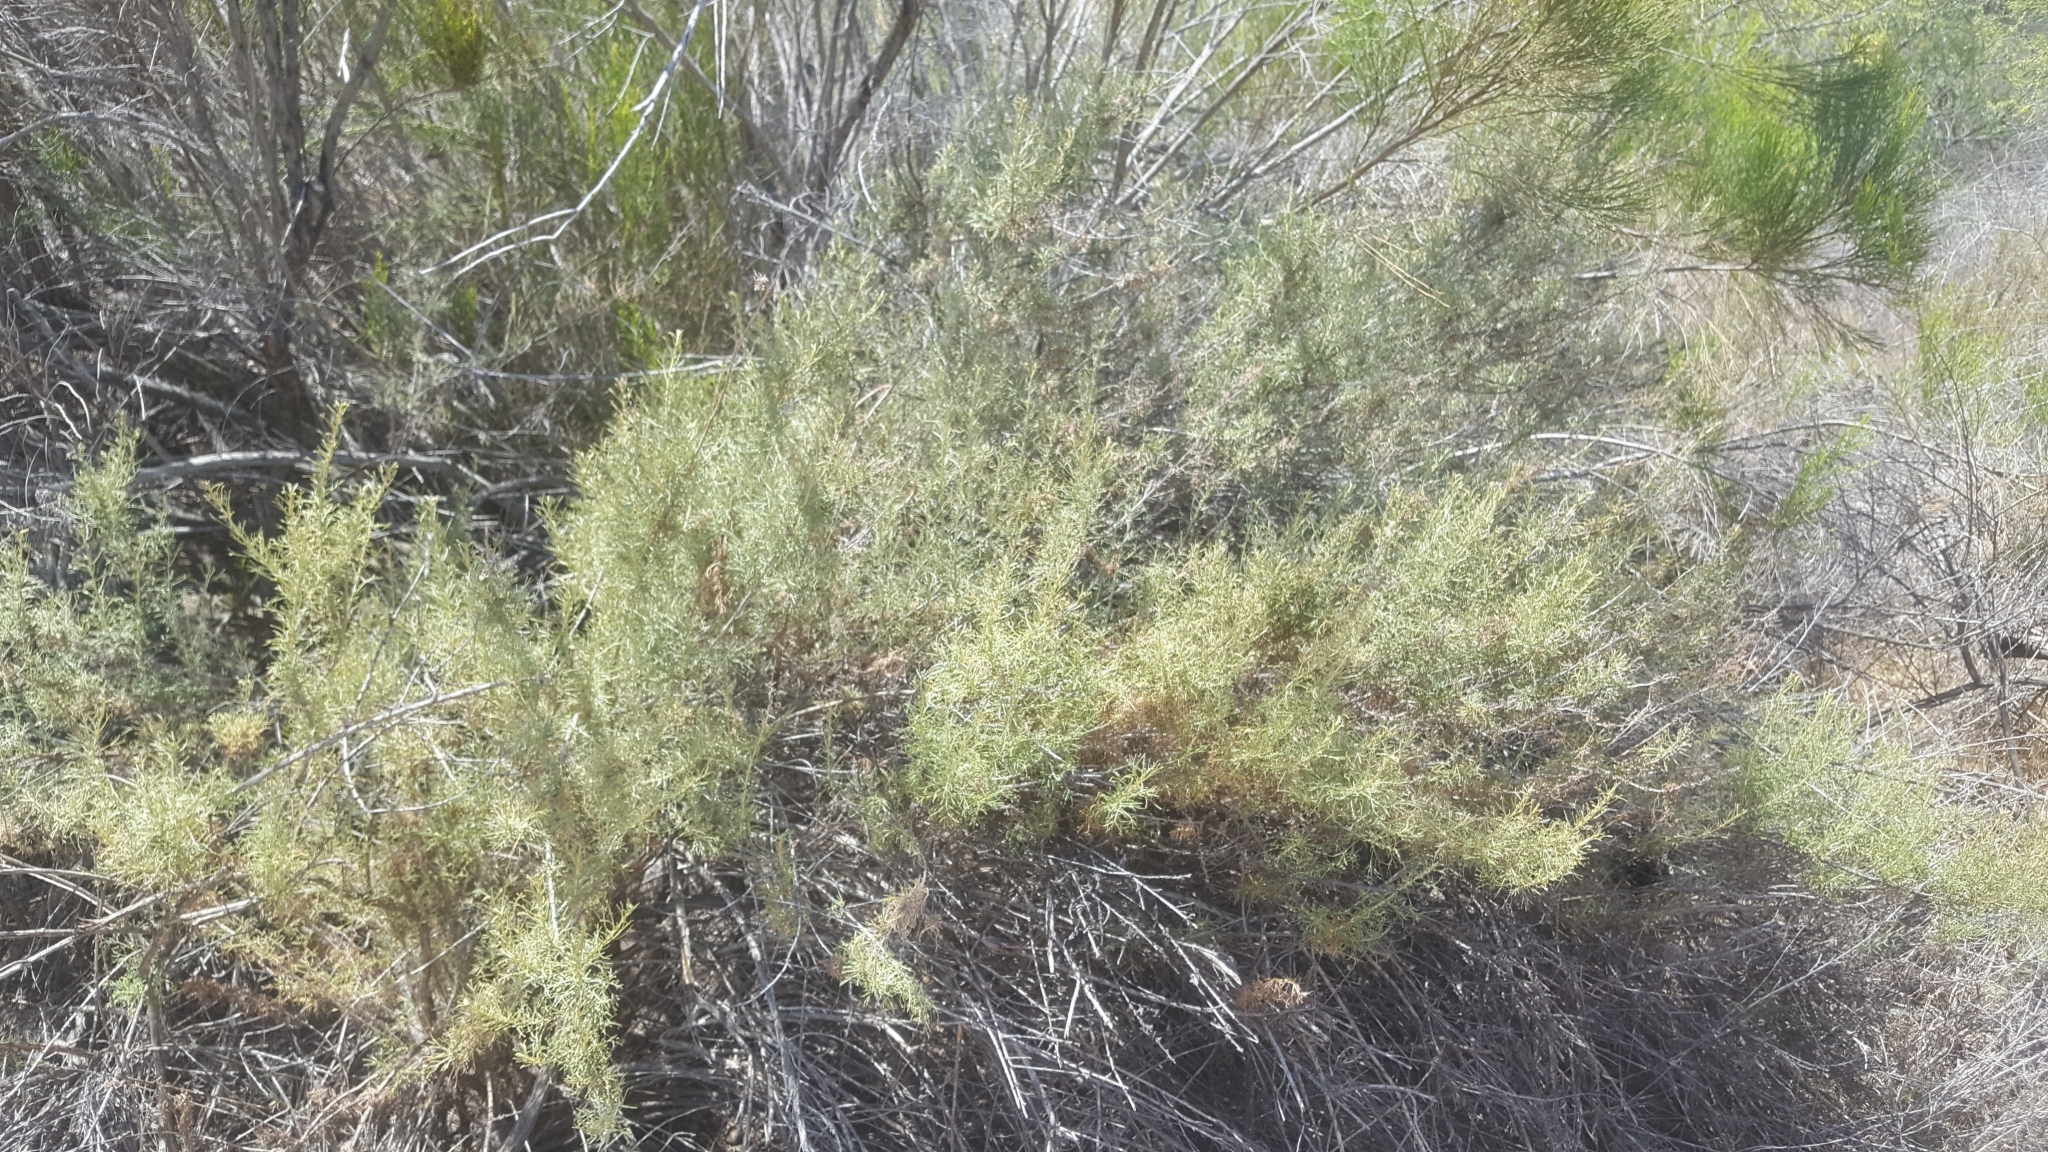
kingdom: Plantae
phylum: Tracheophyta
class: Magnoliopsida
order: Asterales
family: Asteraceae
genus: Artemisia
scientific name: Artemisia californica
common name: California sagebrush
